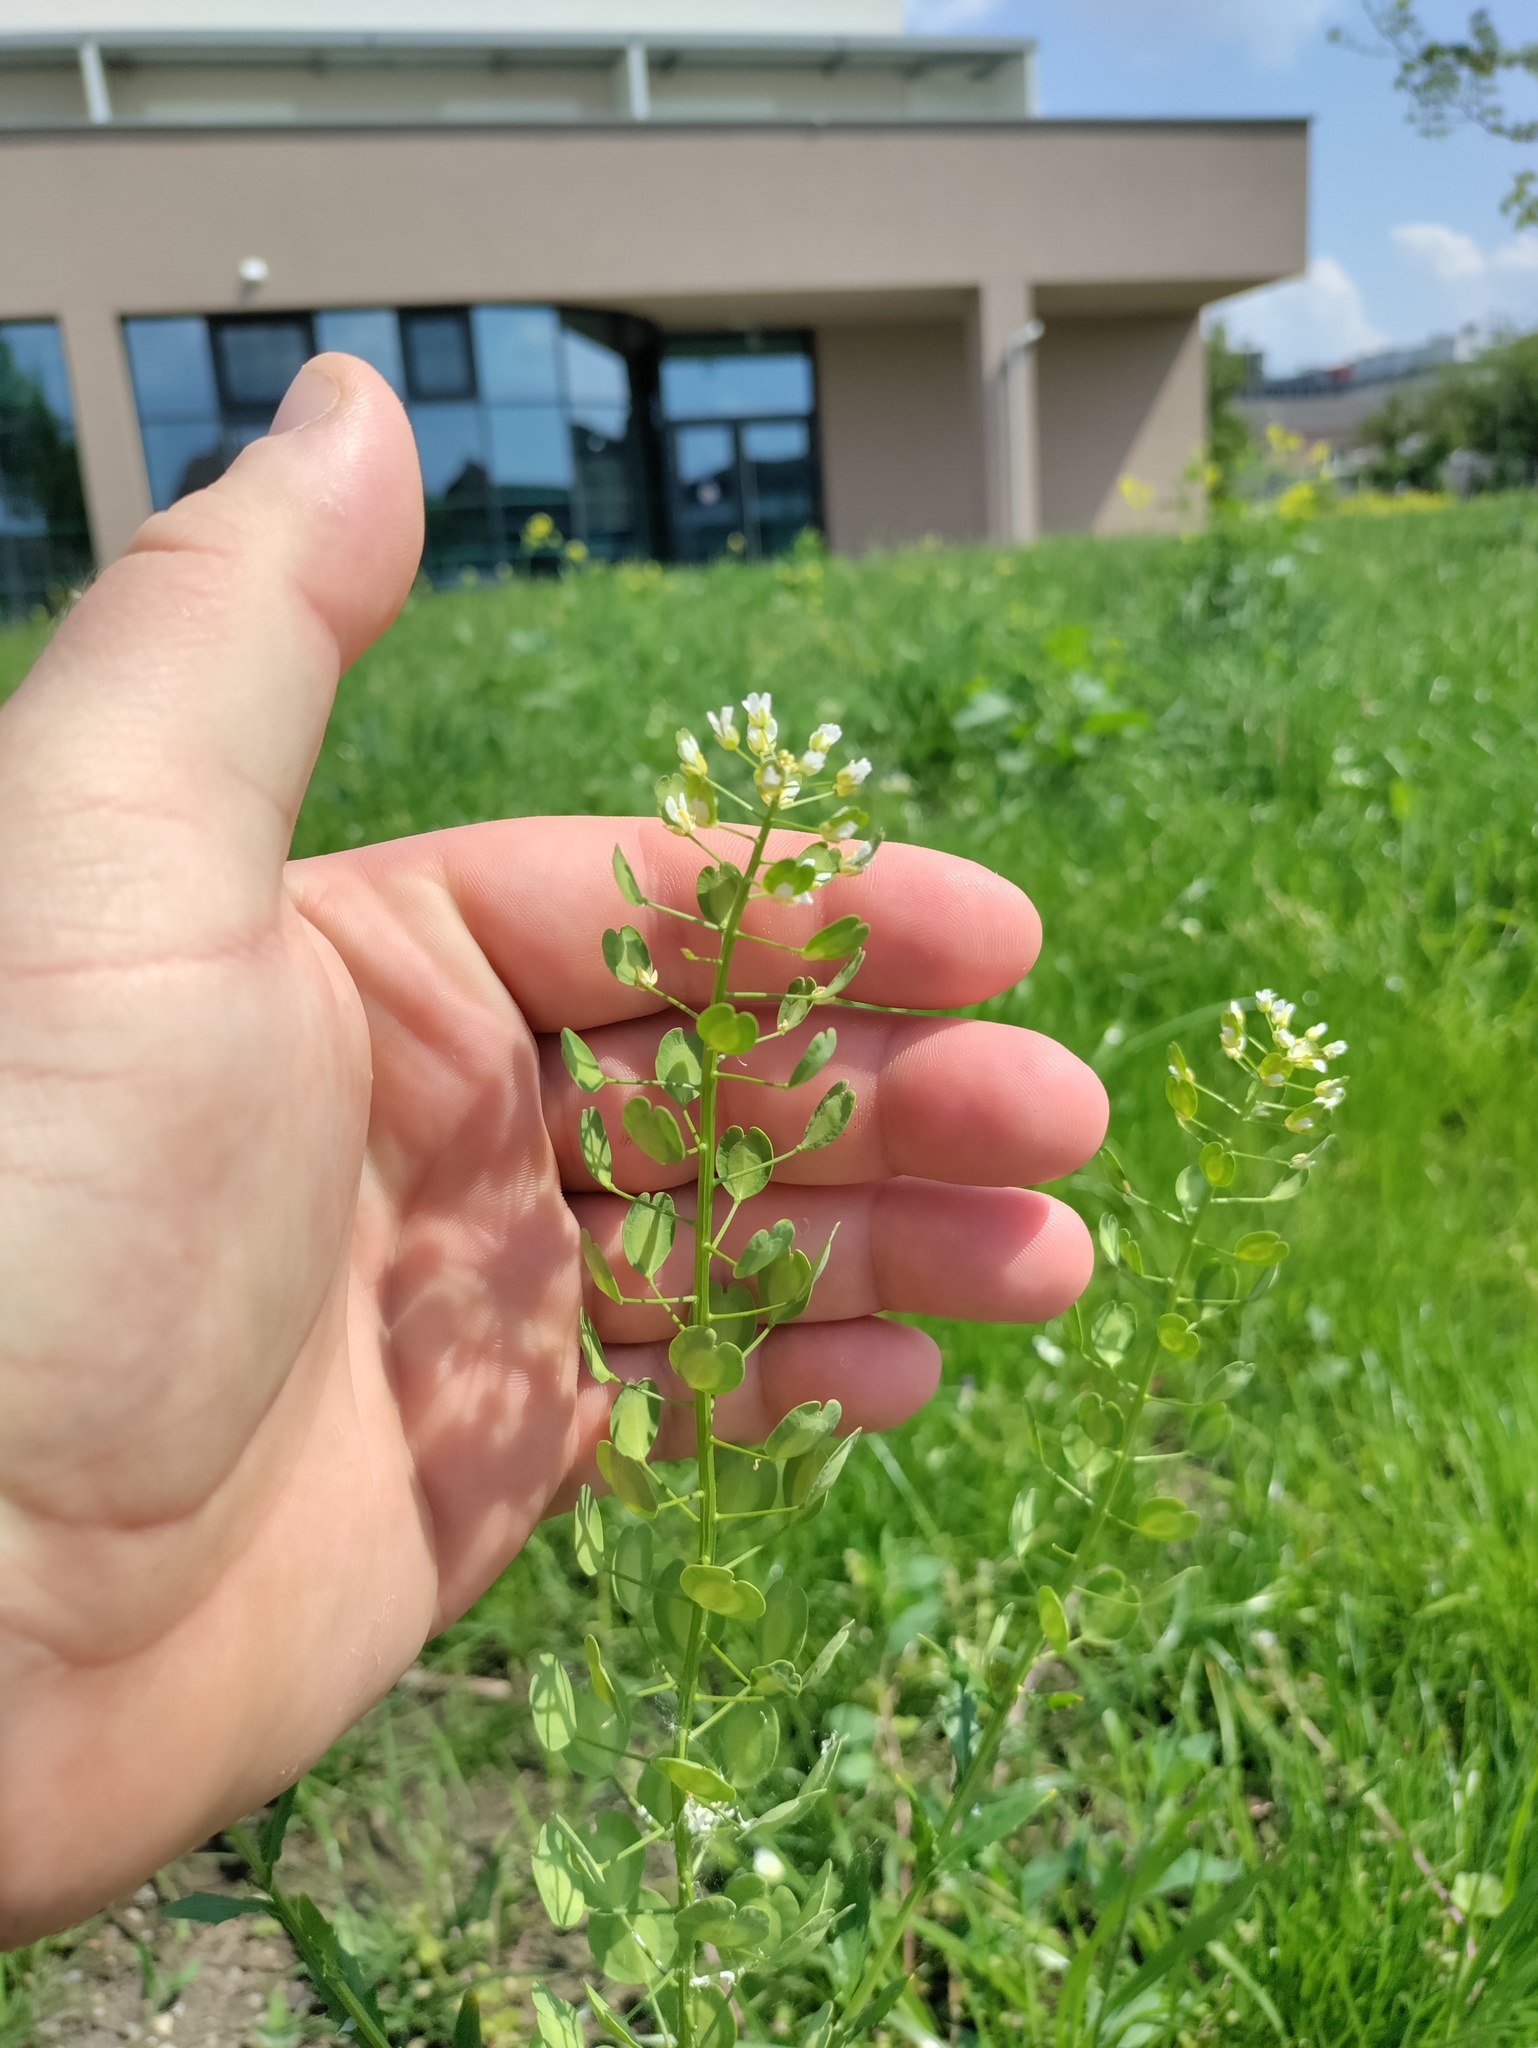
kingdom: Plantae
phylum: Tracheophyta
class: Magnoliopsida
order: Brassicales
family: Brassicaceae
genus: Thlaspi
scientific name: Thlaspi arvense
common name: Field pennycress
